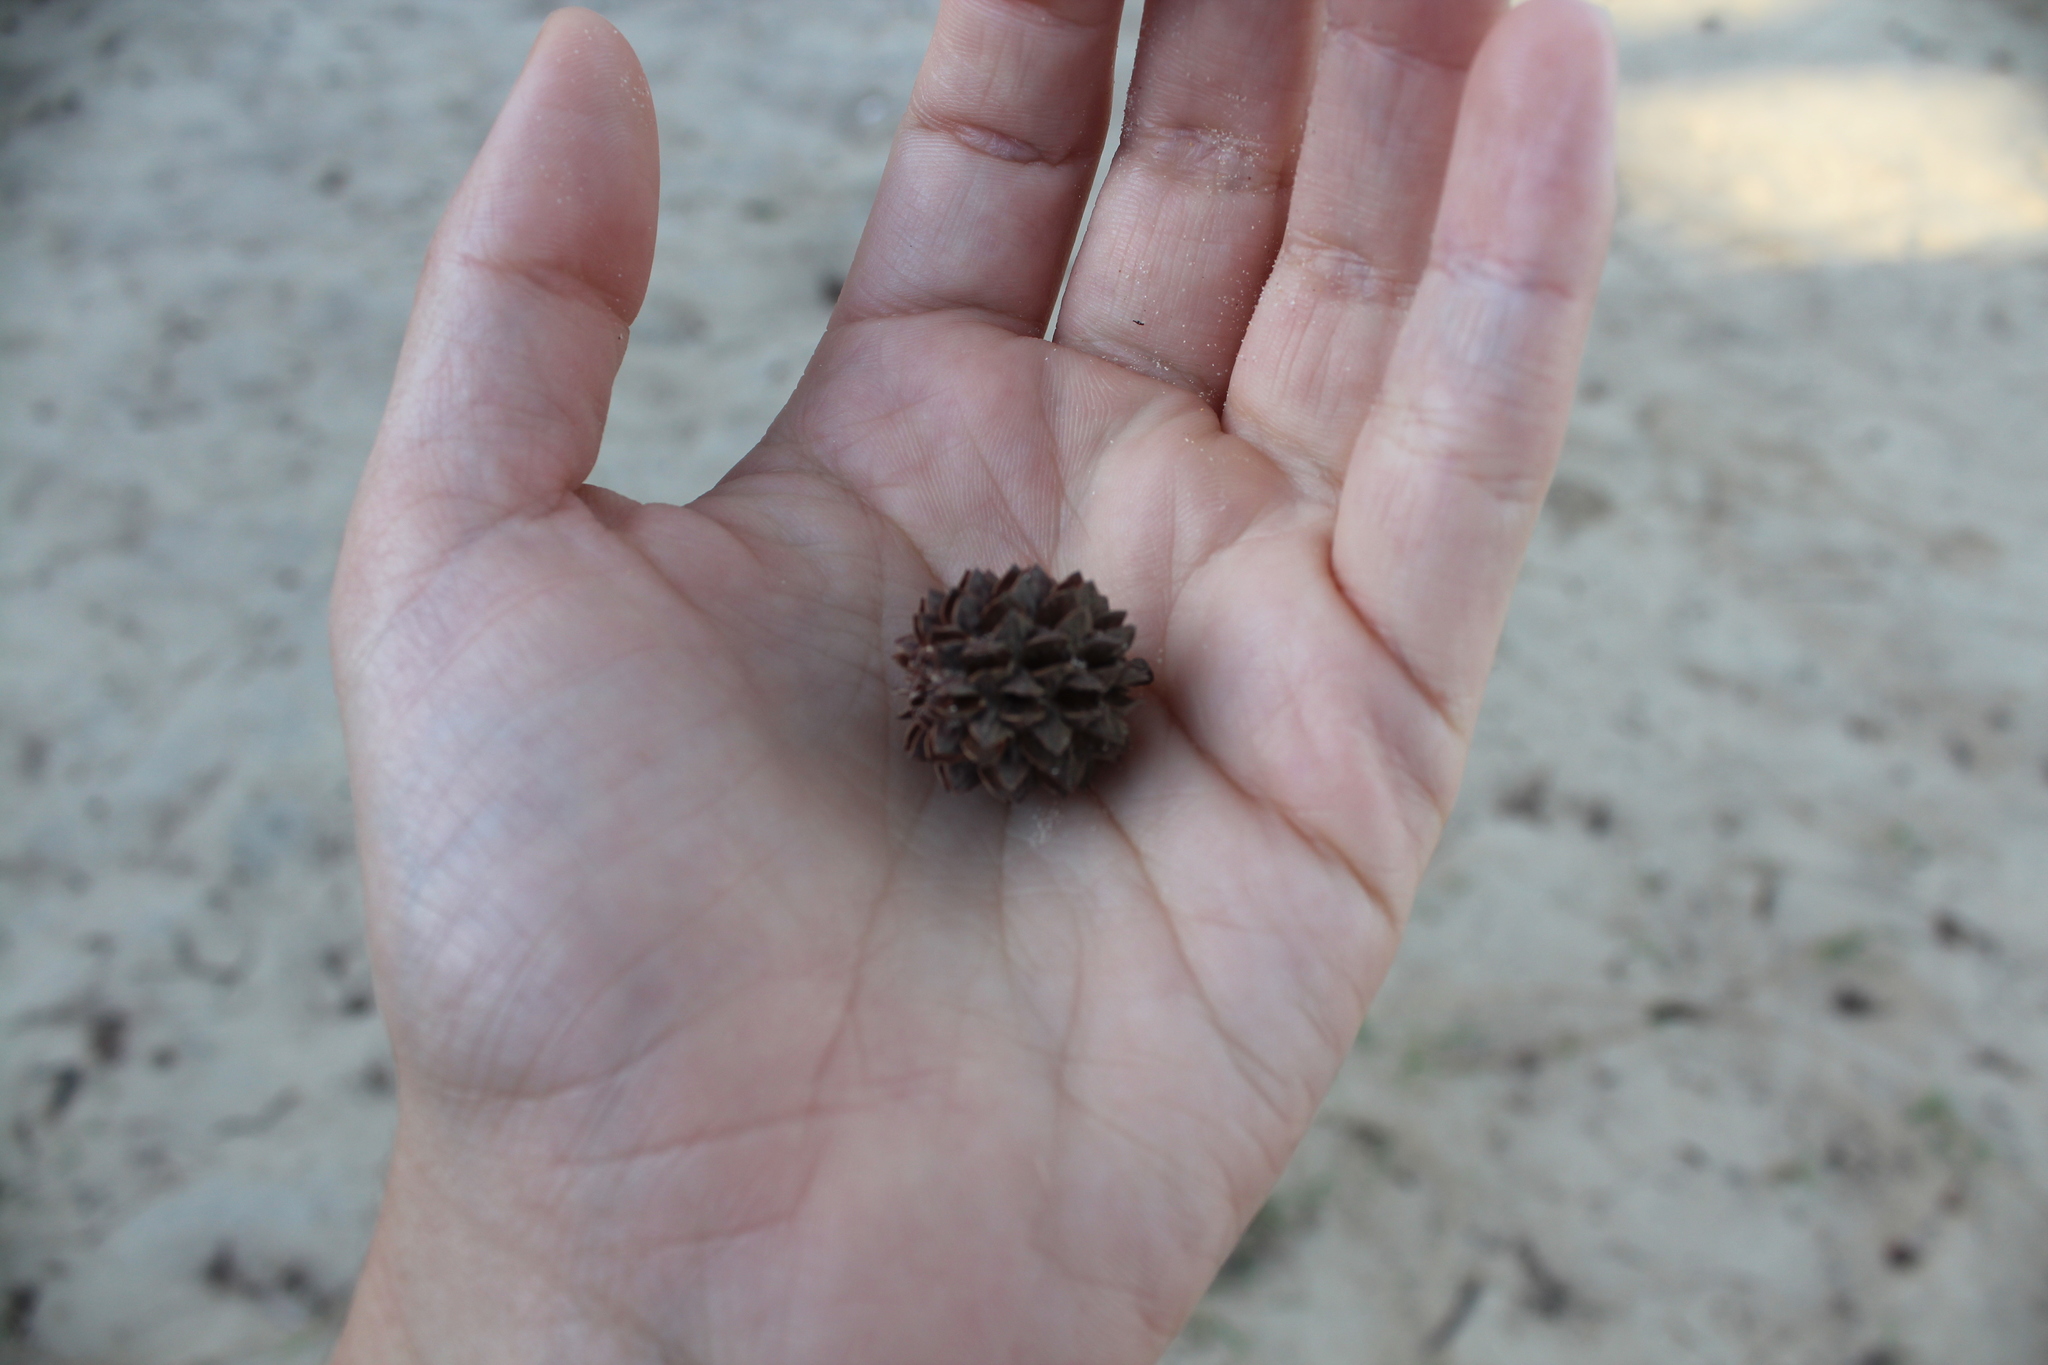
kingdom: Plantae
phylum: Tracheophyta
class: Magnoliopsida
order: Fagales
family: Casuarinaceae
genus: Casuarina
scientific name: Casuarina equisetifolia
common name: Beach sheoak
